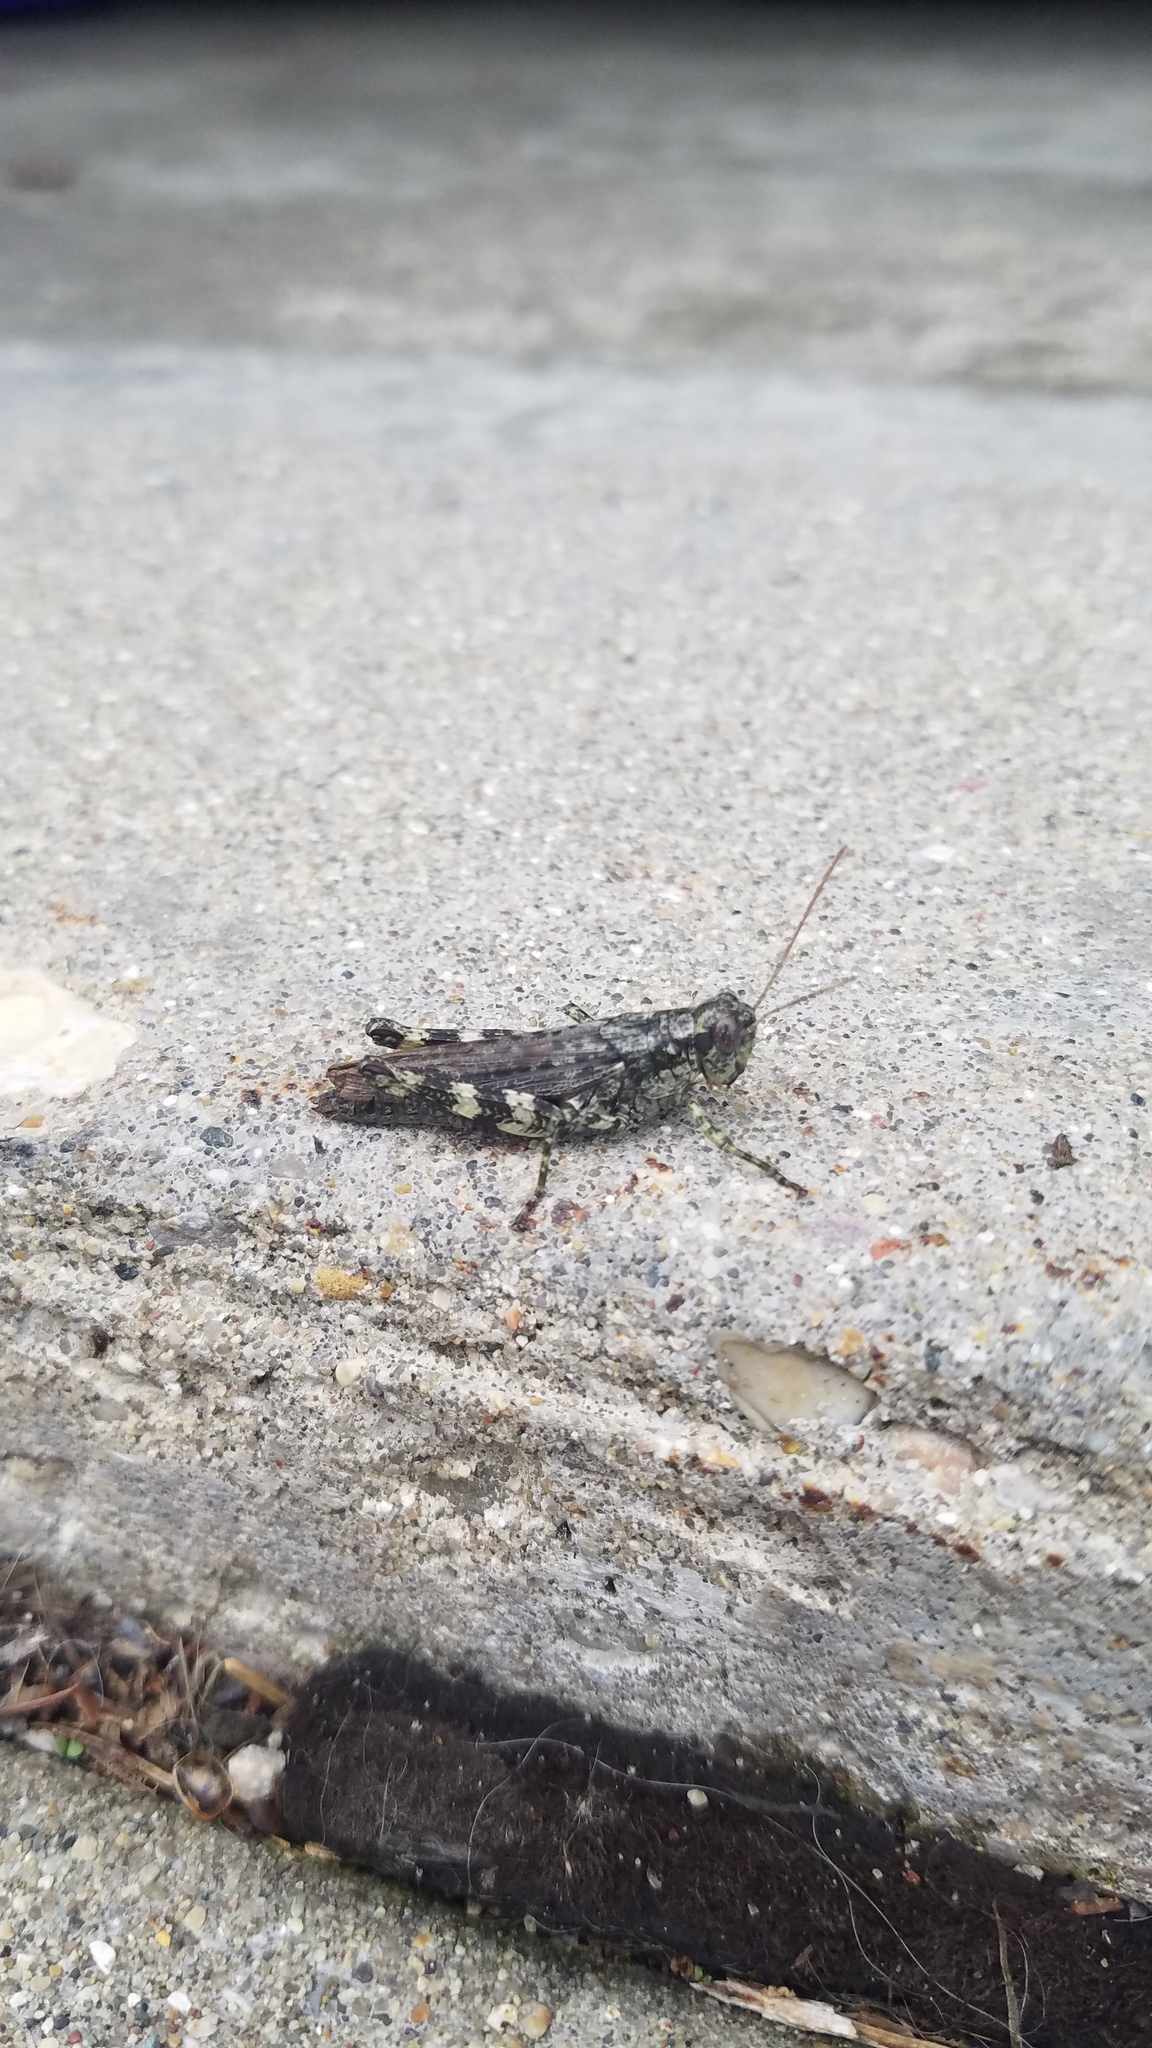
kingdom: Animalia
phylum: Arthropoda
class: Insecta
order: Orthoptera
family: Acrididae
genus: Melanoplus
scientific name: Melanoplus punctulatus
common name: Pine-tree spur-throat grasshopper
